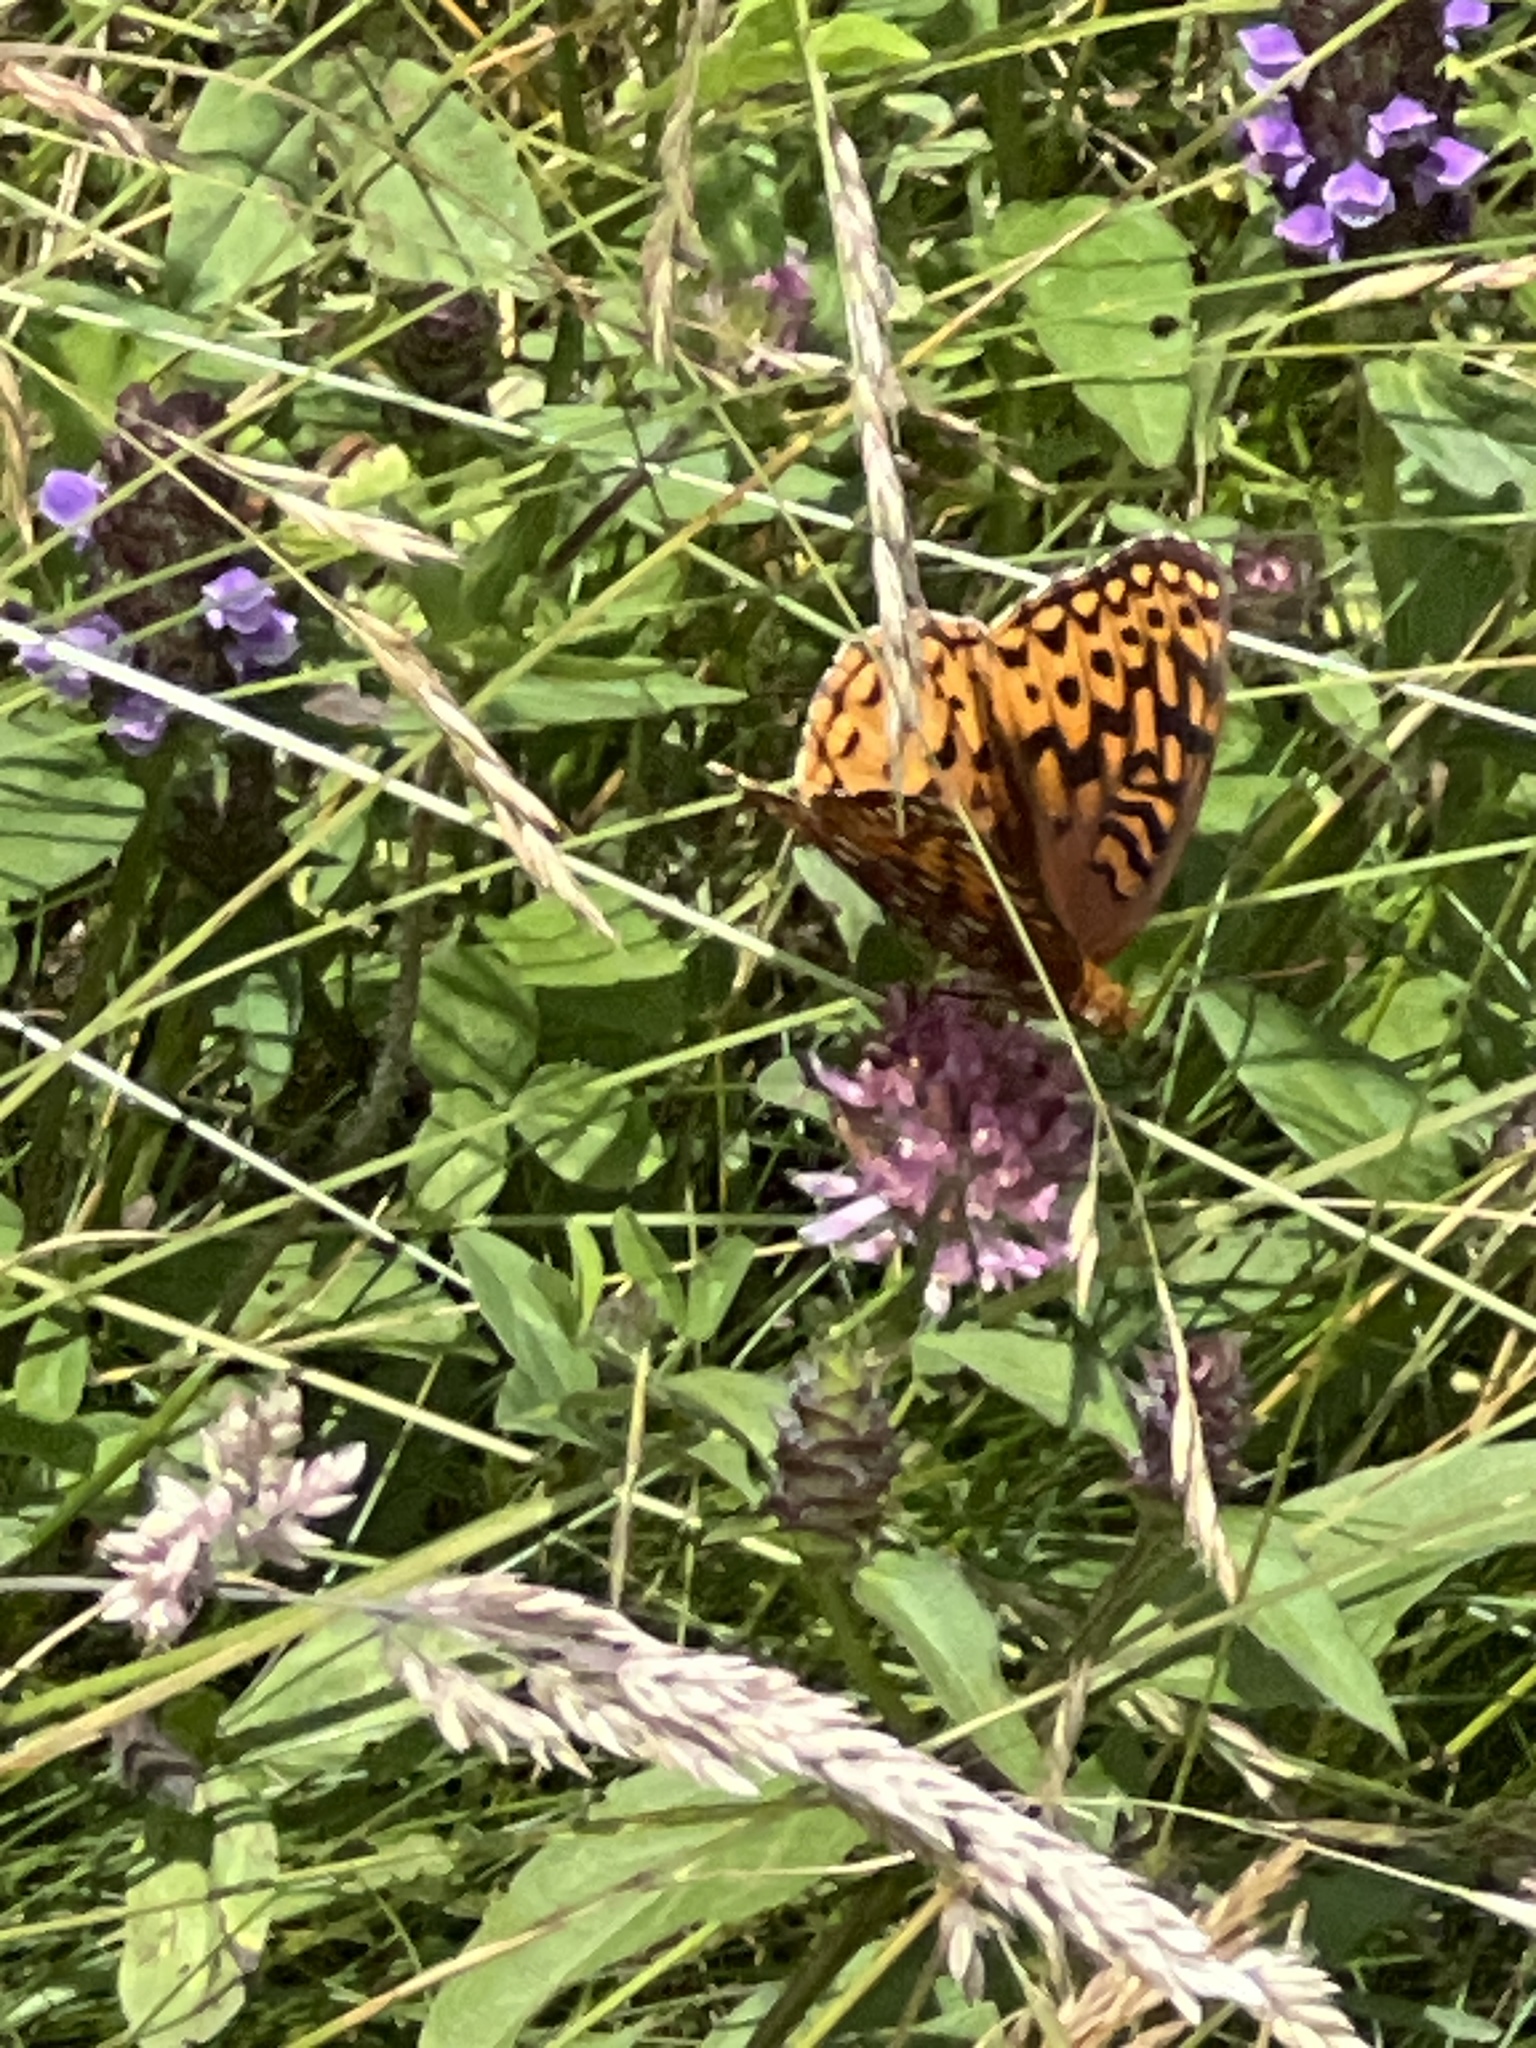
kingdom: Animalia
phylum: Arthropoda
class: Insecta
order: Lepidoptera
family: Nymphalidae
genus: Speyeria
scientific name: Speyeria aphrodite
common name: Aphrodite friitllary
